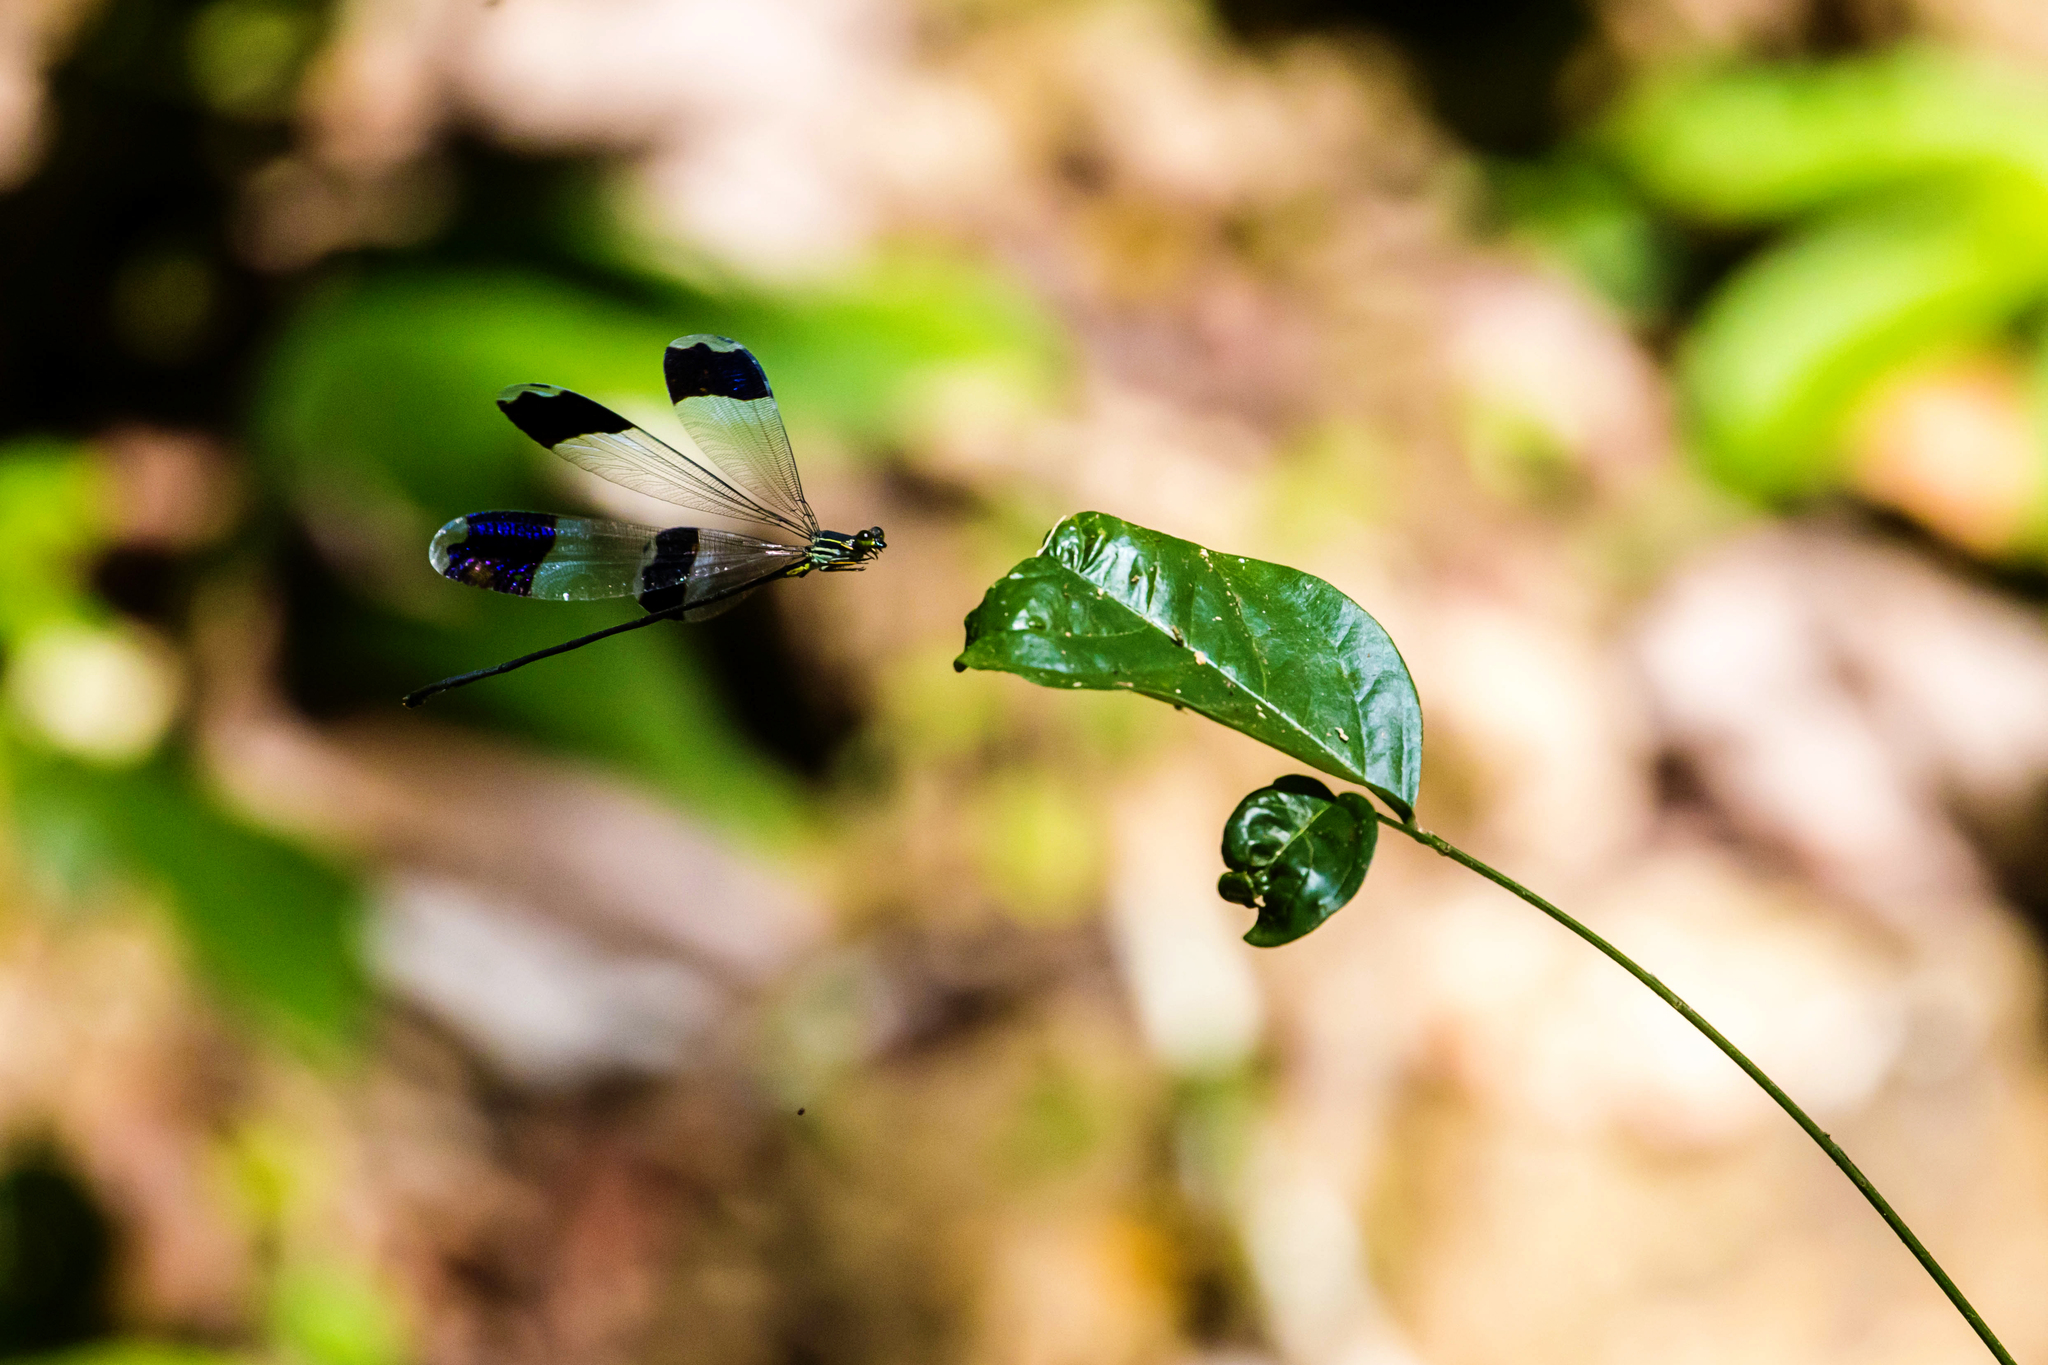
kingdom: Animalia
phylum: Arthropoda
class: Insecta
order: Odonata
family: Coenagrionidae
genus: Megaloprepus
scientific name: Megaloprepus caerulatus
